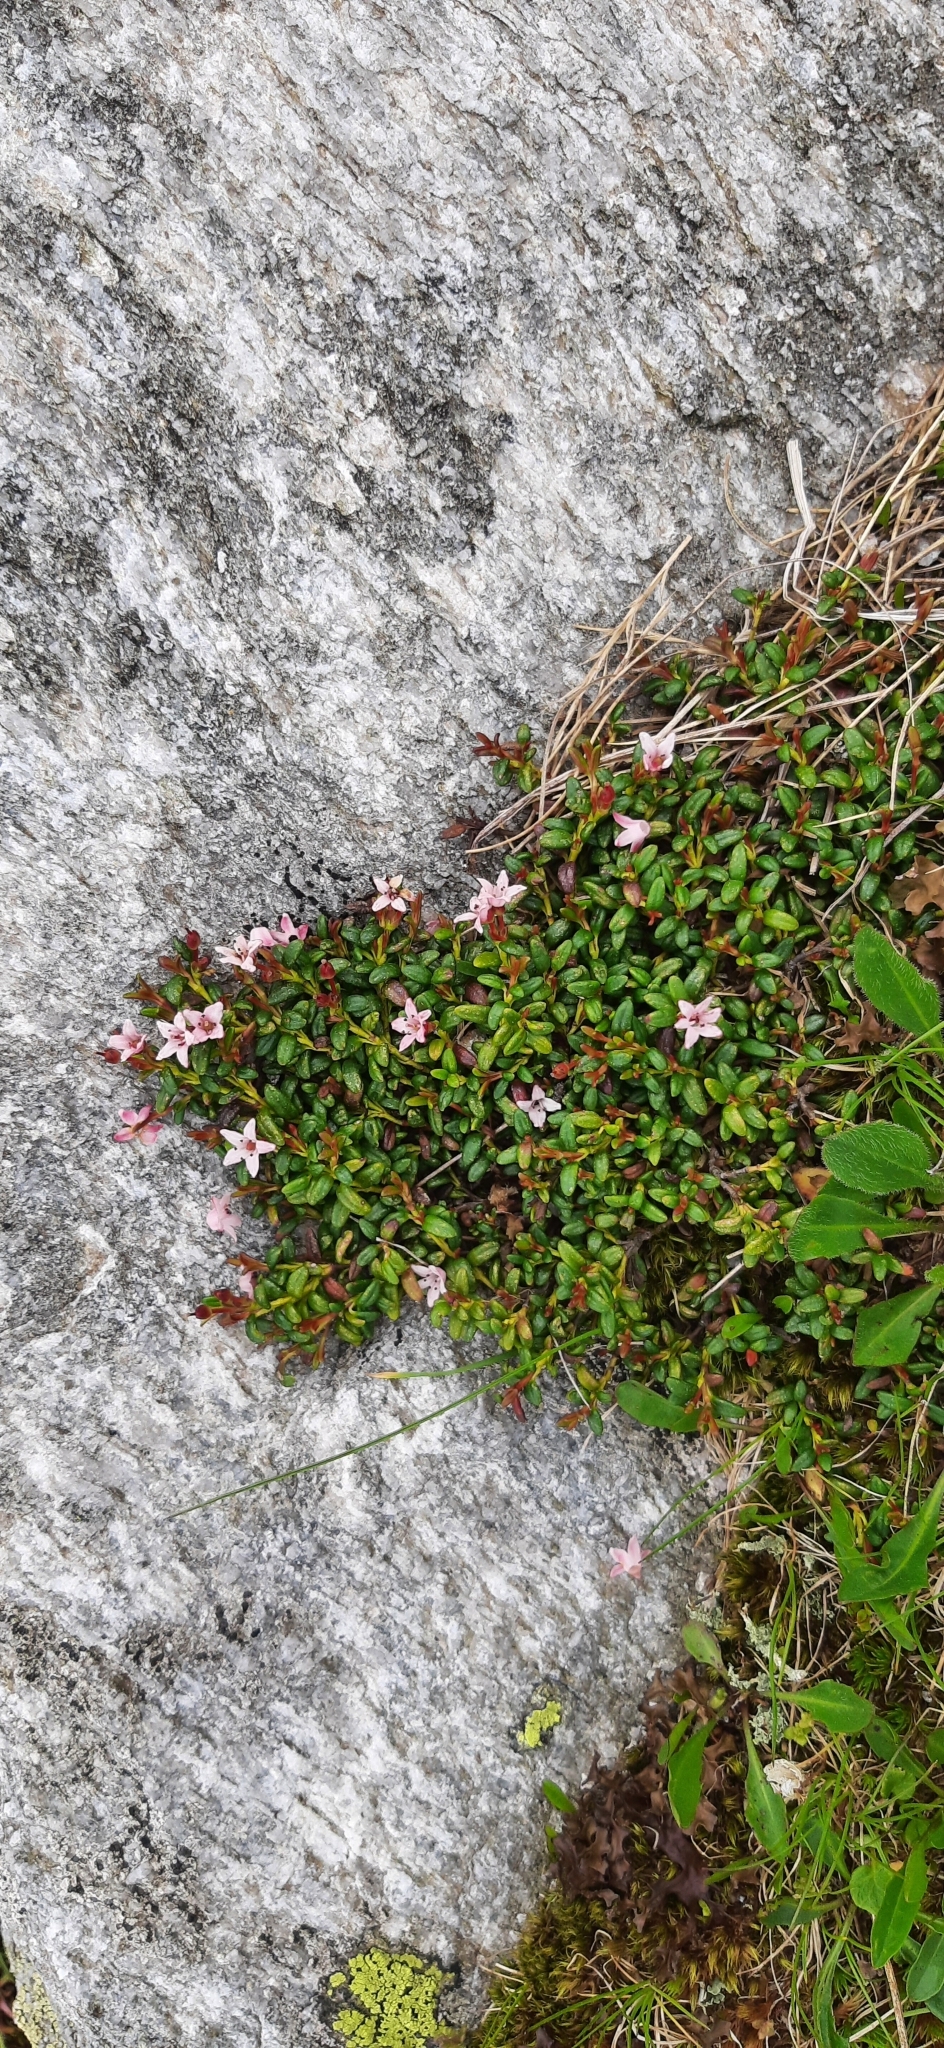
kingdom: Plantae
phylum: Tracheophyta
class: Magnoliopsida
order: Ericales
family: Ericaceae
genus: Kalmia
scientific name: Kalmia procumbens
